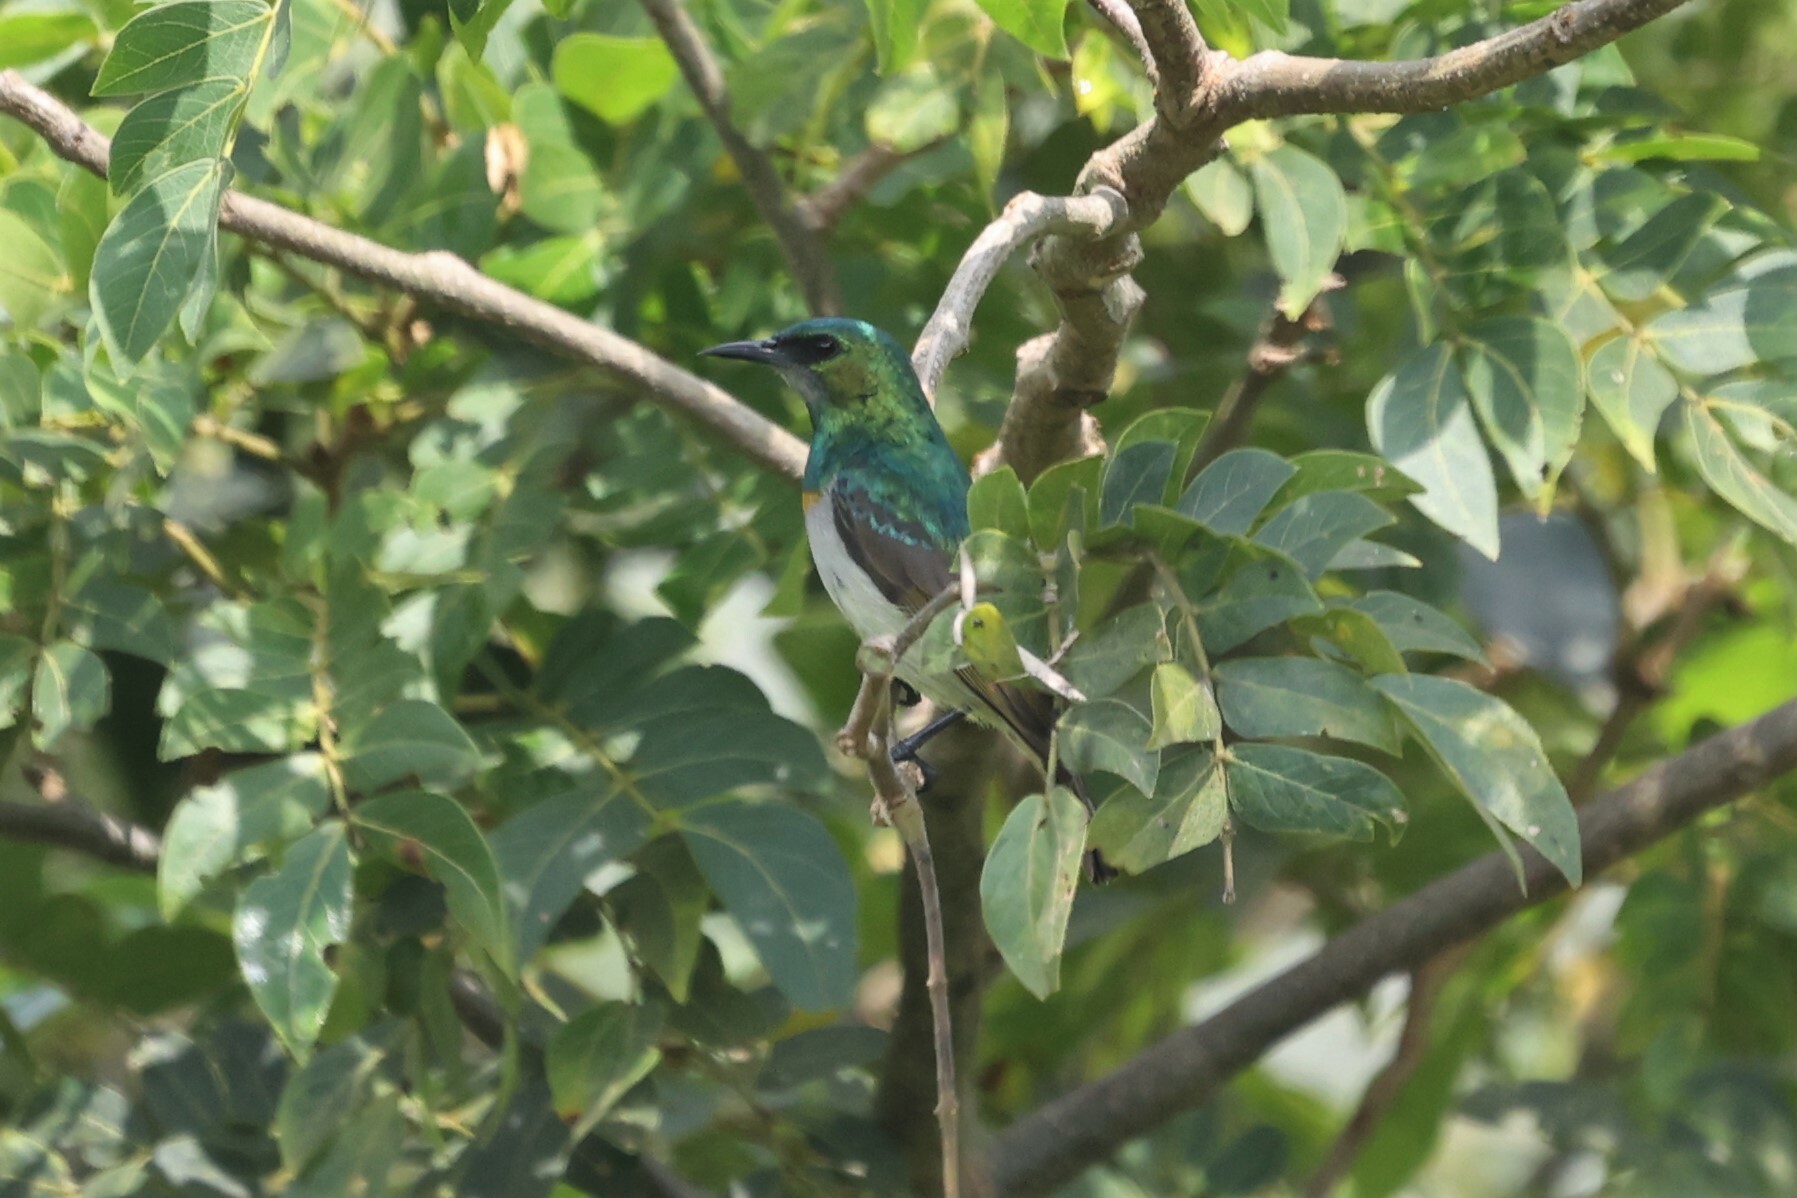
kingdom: Animalia
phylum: Chordata
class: Aves
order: Passeriformes
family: Nectariniidae
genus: Anthreptes
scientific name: Anthreptes rectirostris
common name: Grey-chinned sunbird
